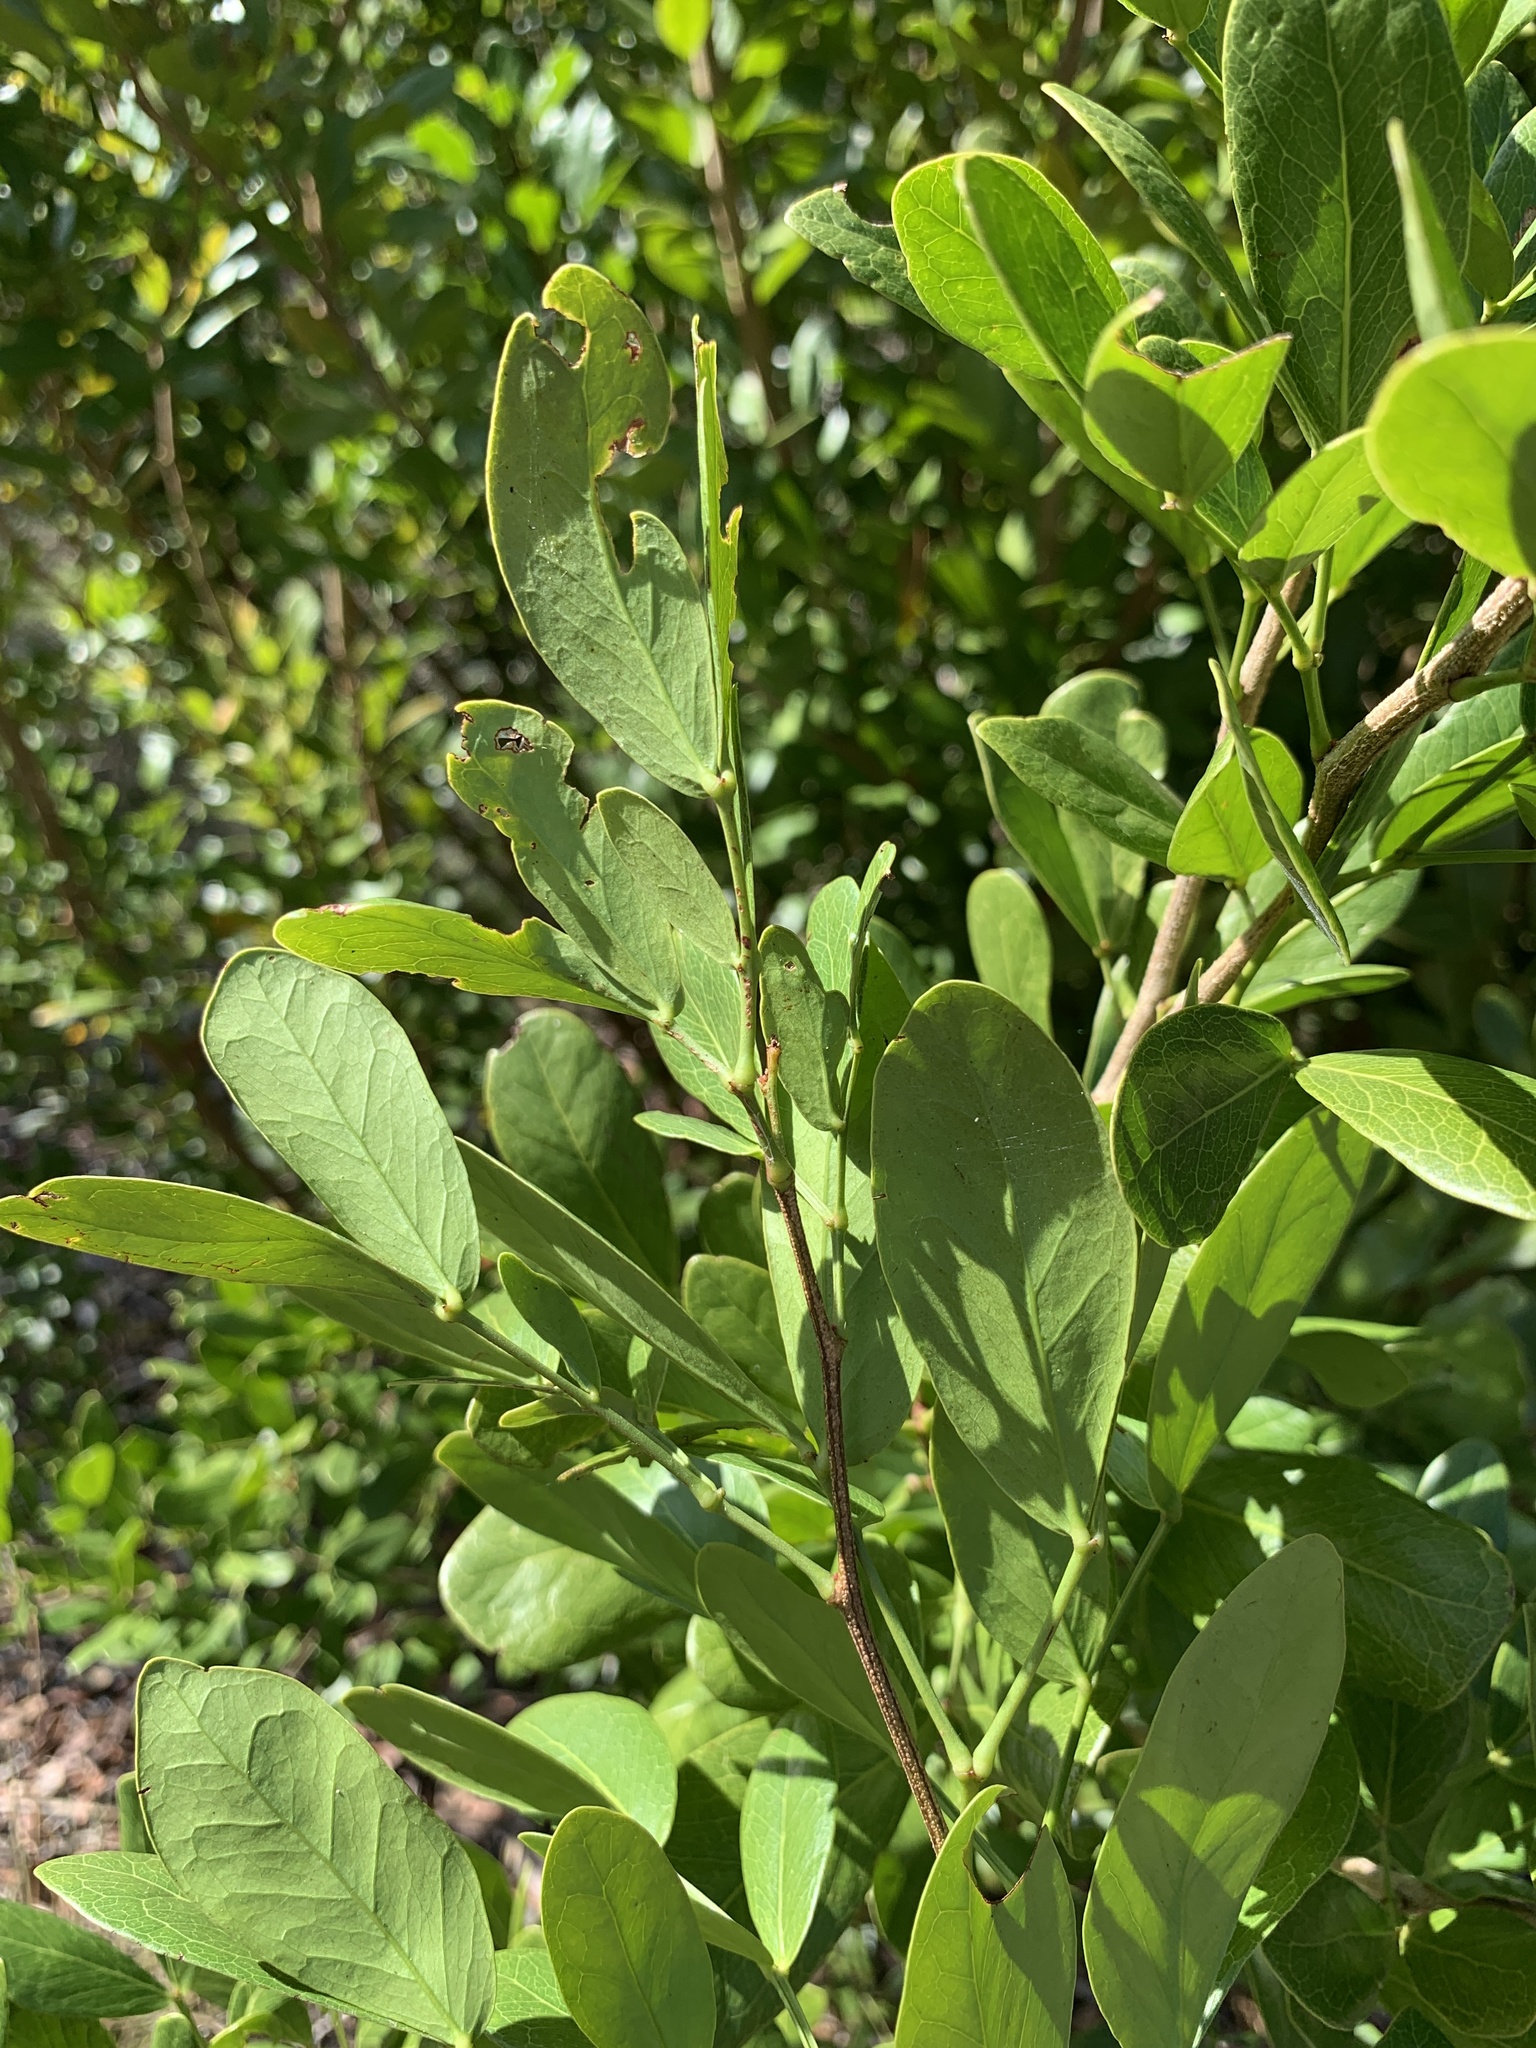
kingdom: Plantae
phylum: Tracheophyta
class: Magnoliopsida
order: Fabales
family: Fabaceae
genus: Pithecellobium
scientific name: Pithecellobium unguis-cati
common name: Cat's-claw
